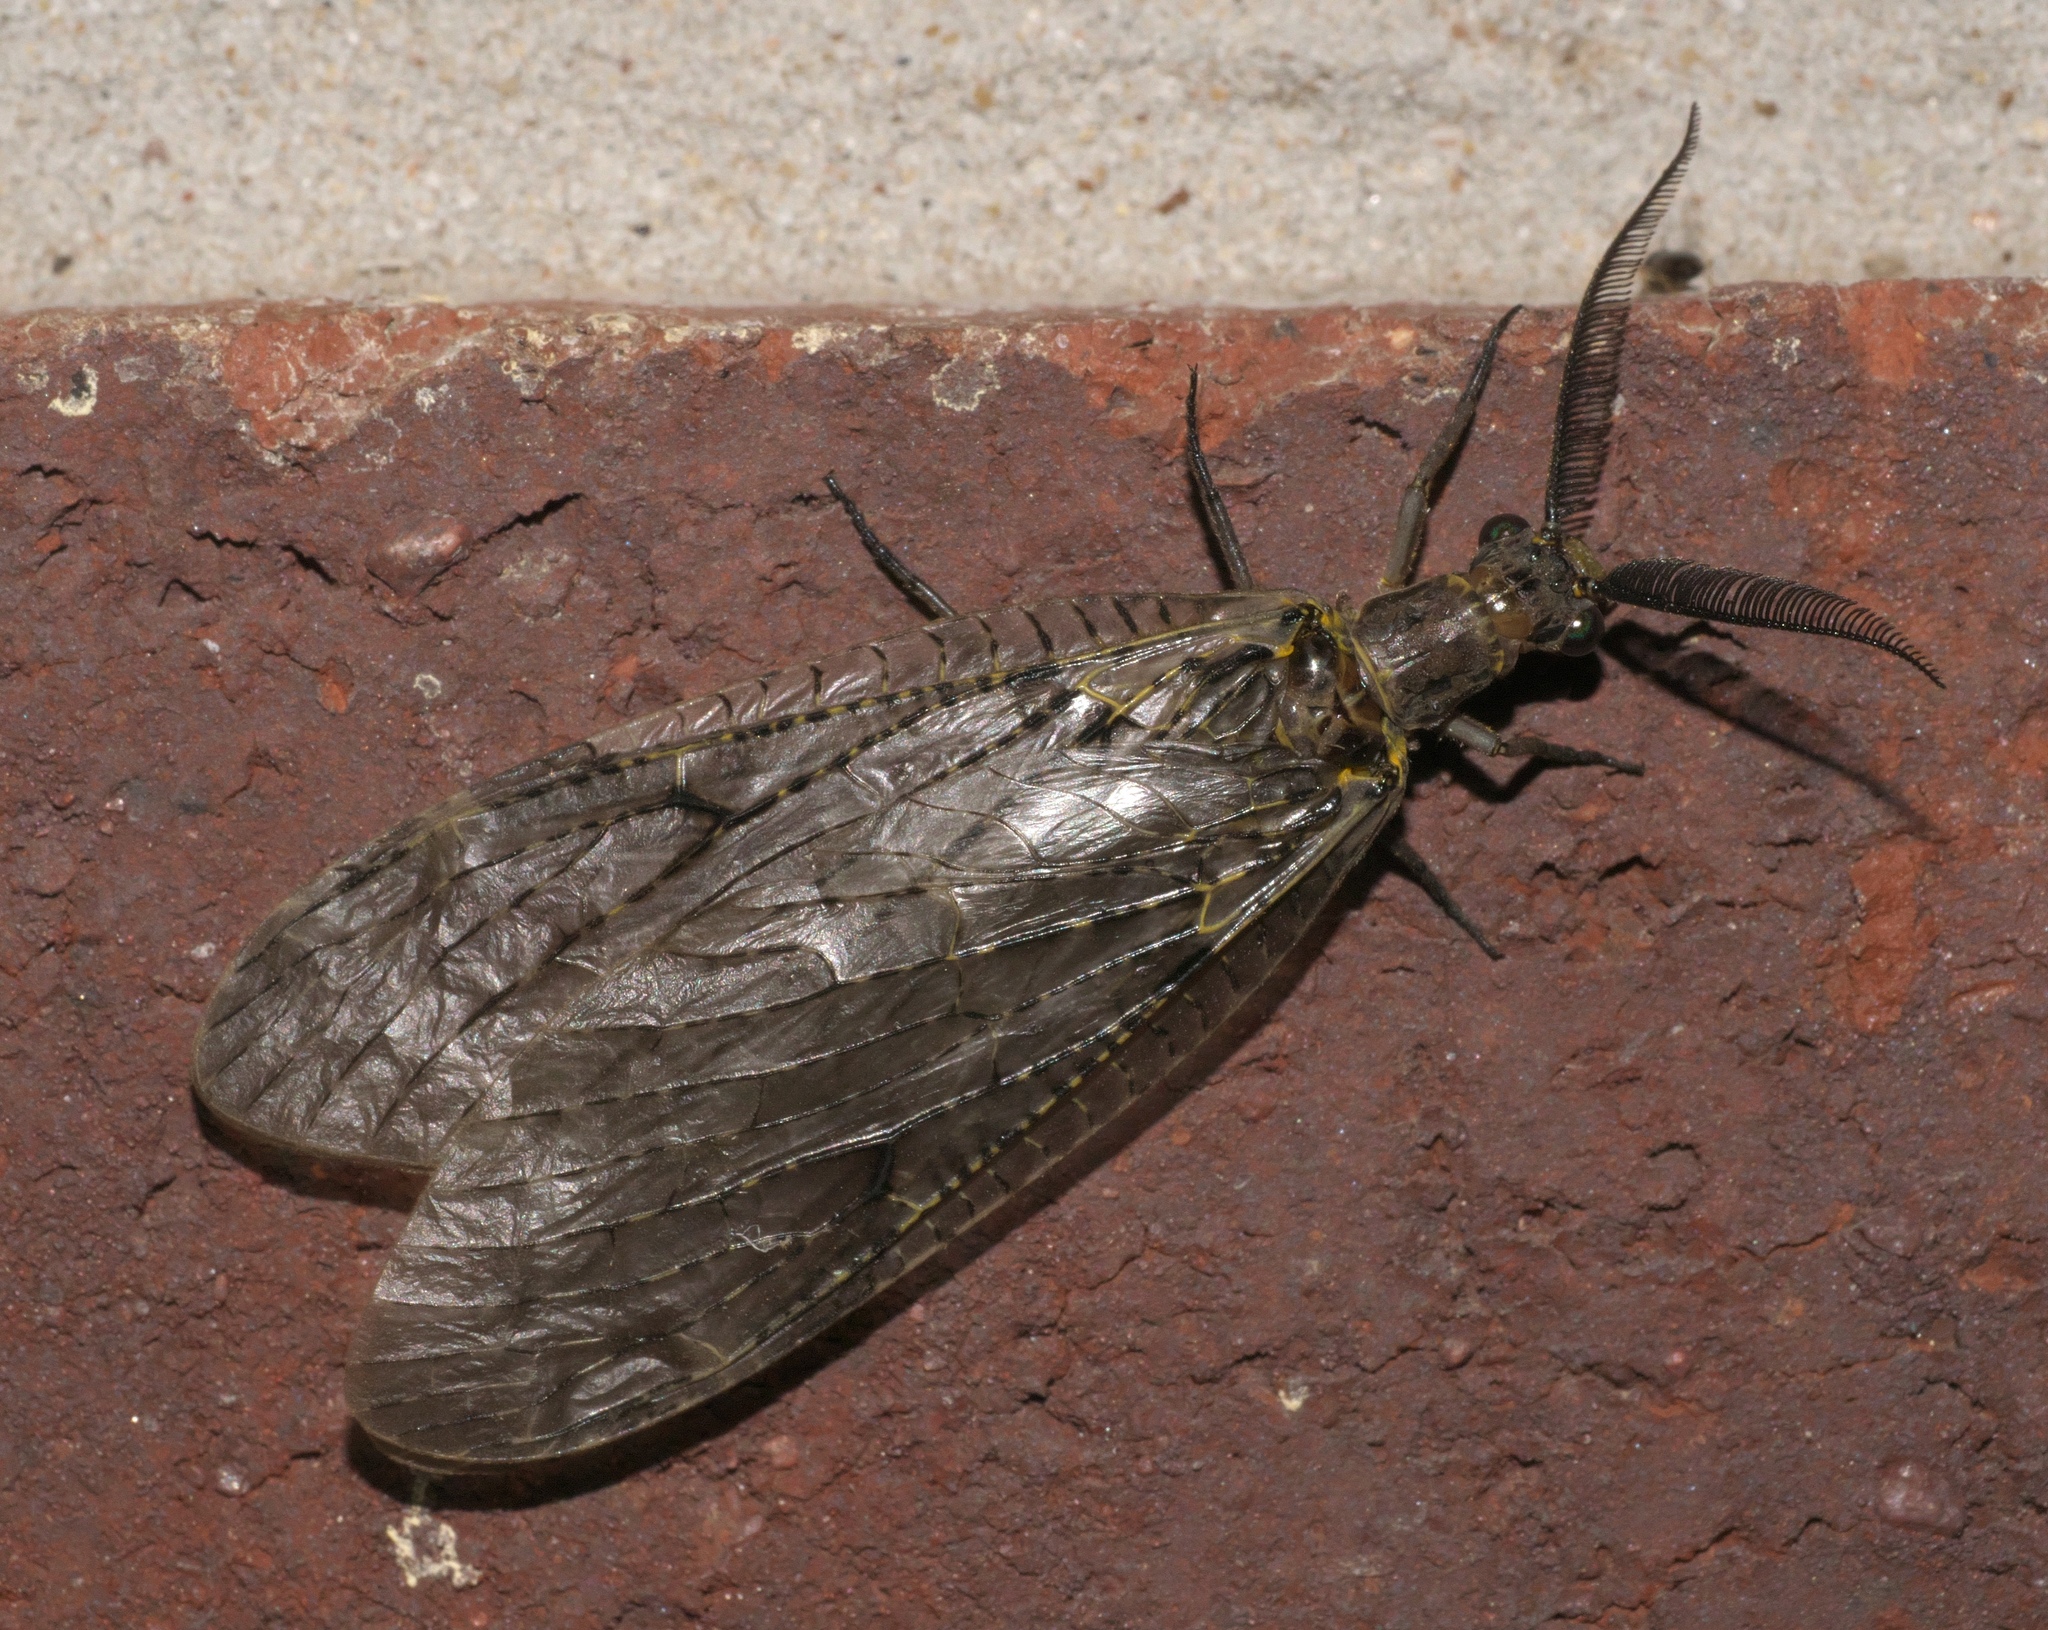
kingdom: Animalia
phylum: Arthropoda
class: Insecta
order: Megaloptera
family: Corydalidae
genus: Chauliodes
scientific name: Chauliodes rastricornis
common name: Spring fishfly
